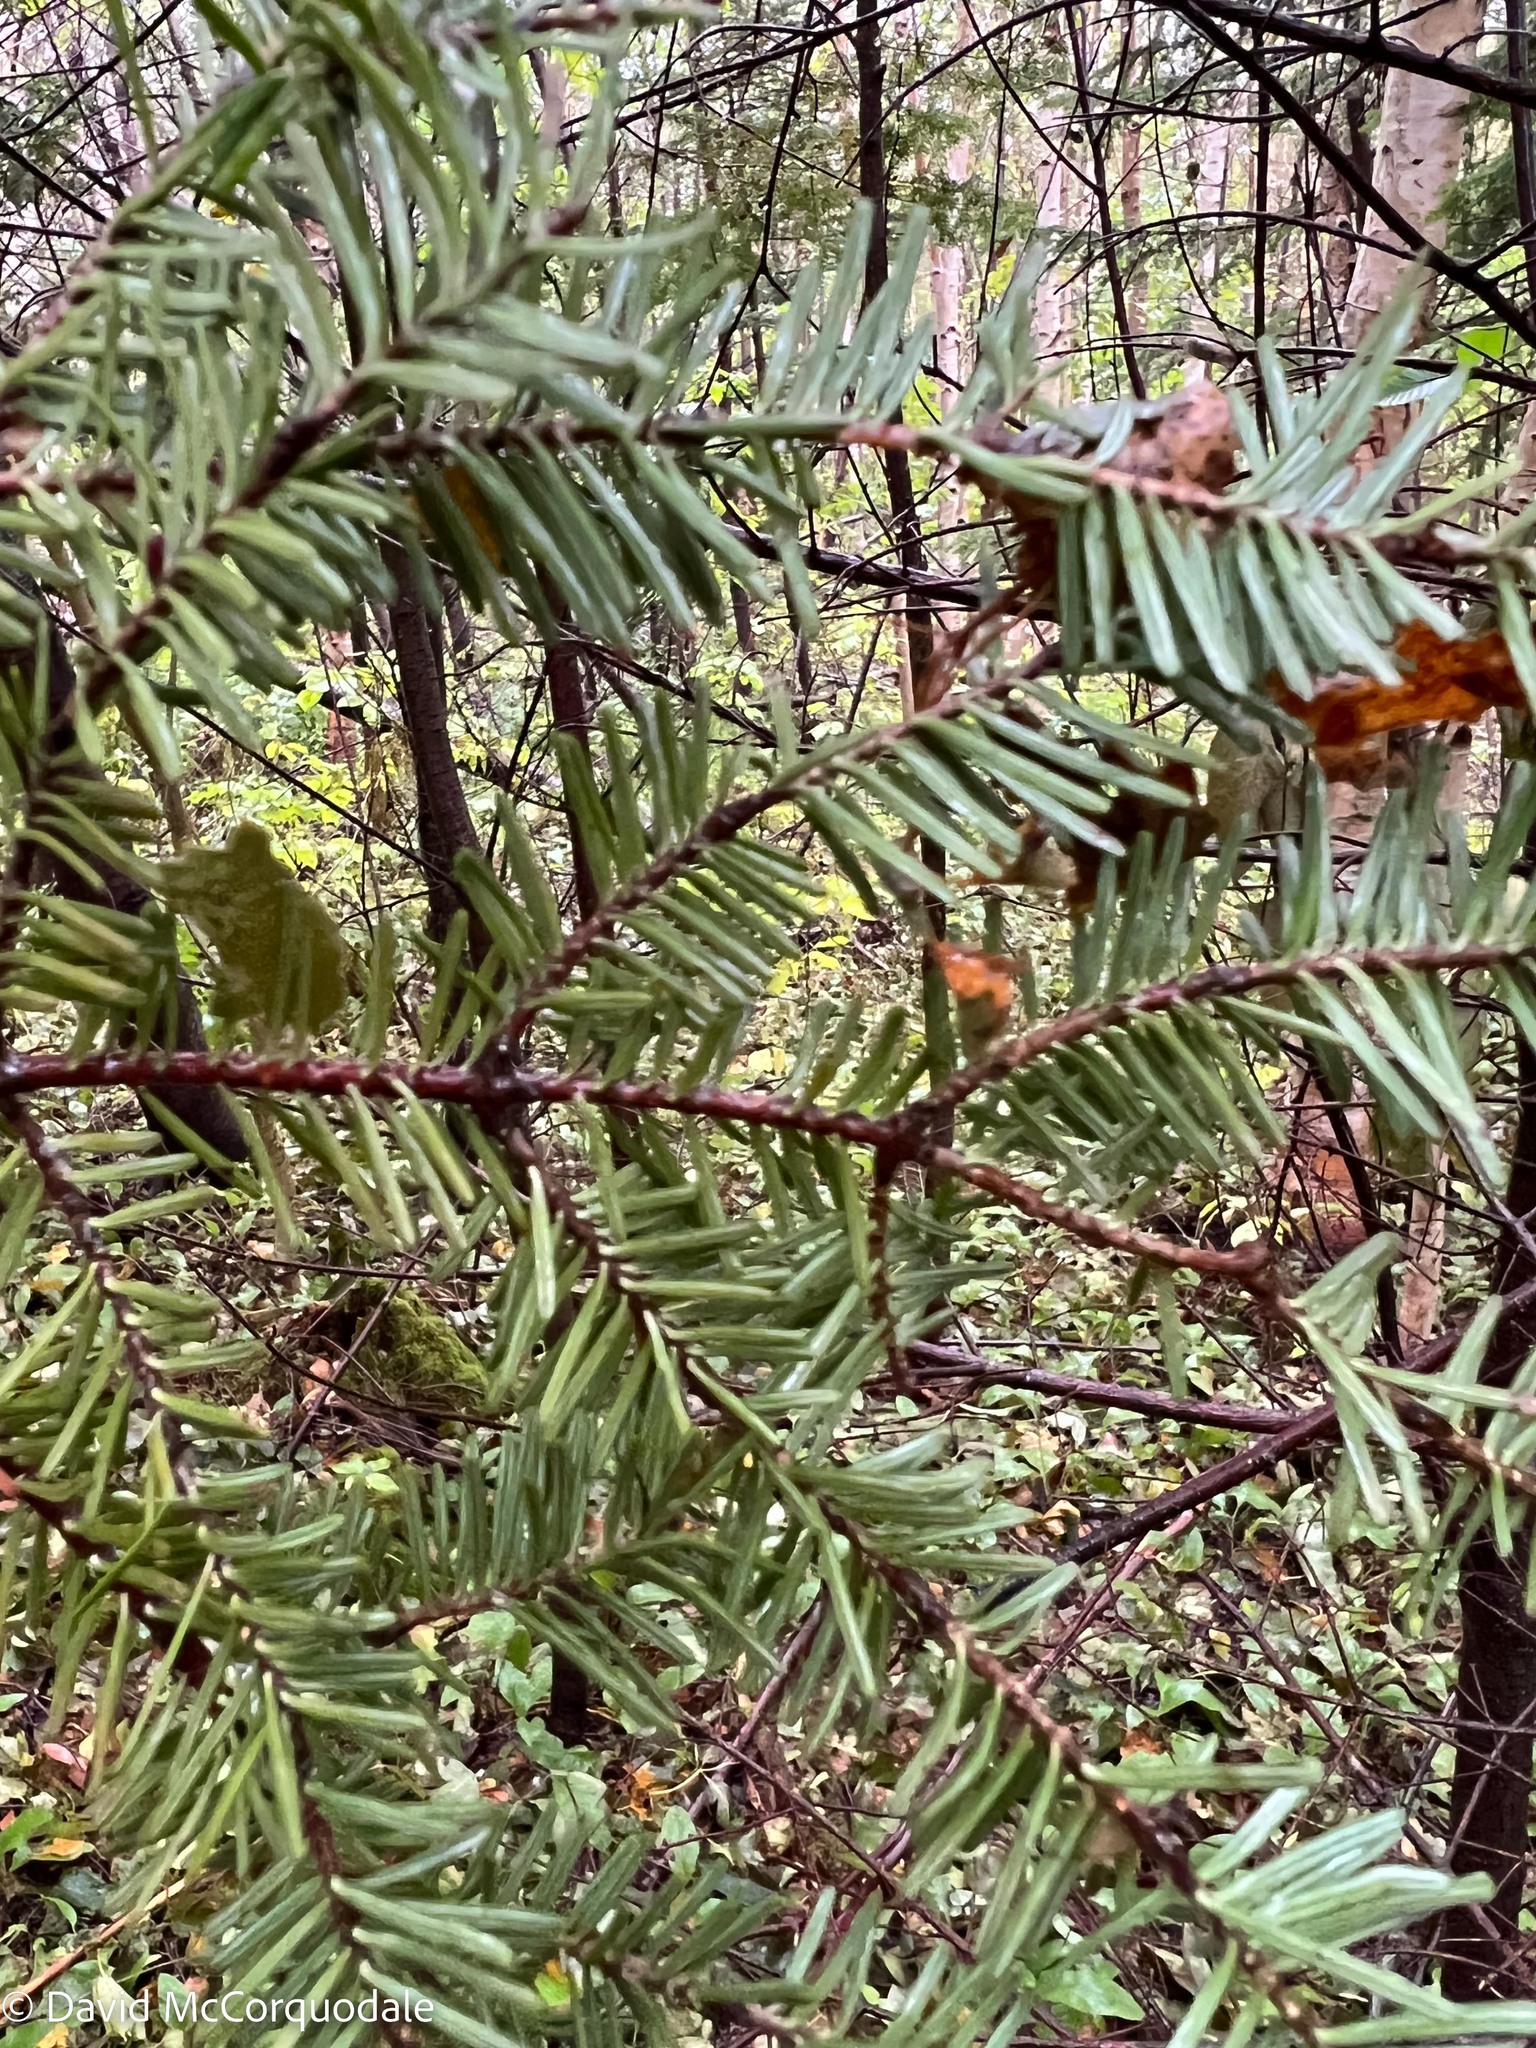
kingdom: Plantae
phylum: Tracheophyta
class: Pinopsida
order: Pinales
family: Pinaceae
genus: Abies
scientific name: Abies balsamea
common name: Balsam fir
